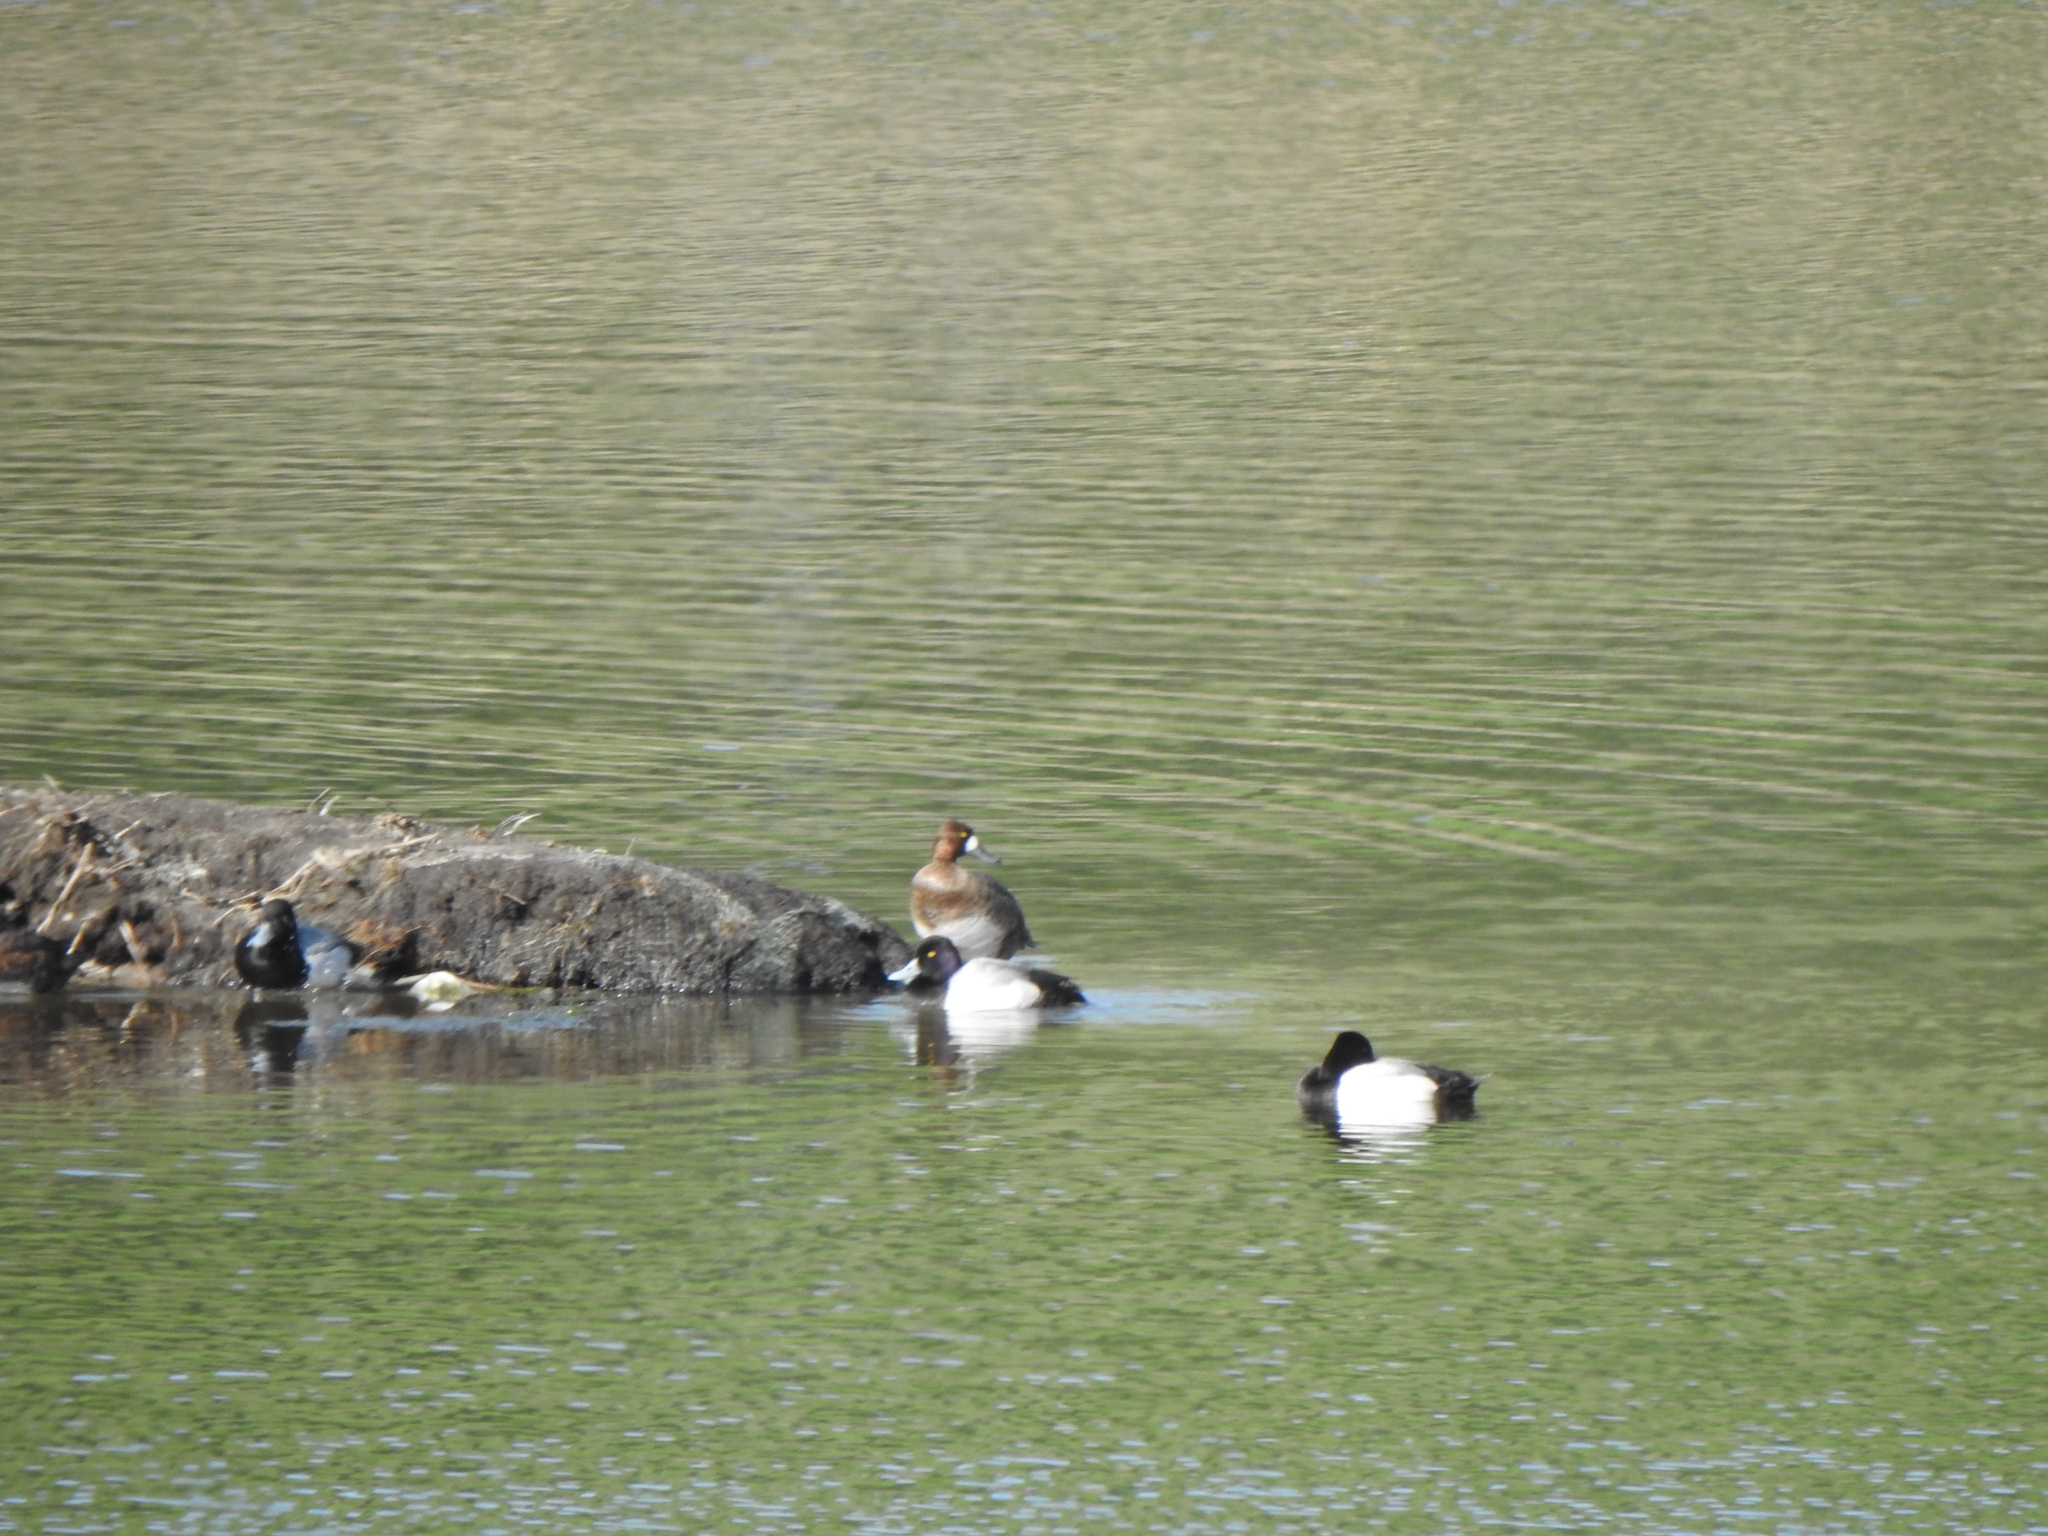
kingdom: Animalia
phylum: Chordata
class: Aves
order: Anseriformes
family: Anatidae
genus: Aythya
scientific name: Aythya affinis
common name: Lesser scaup
